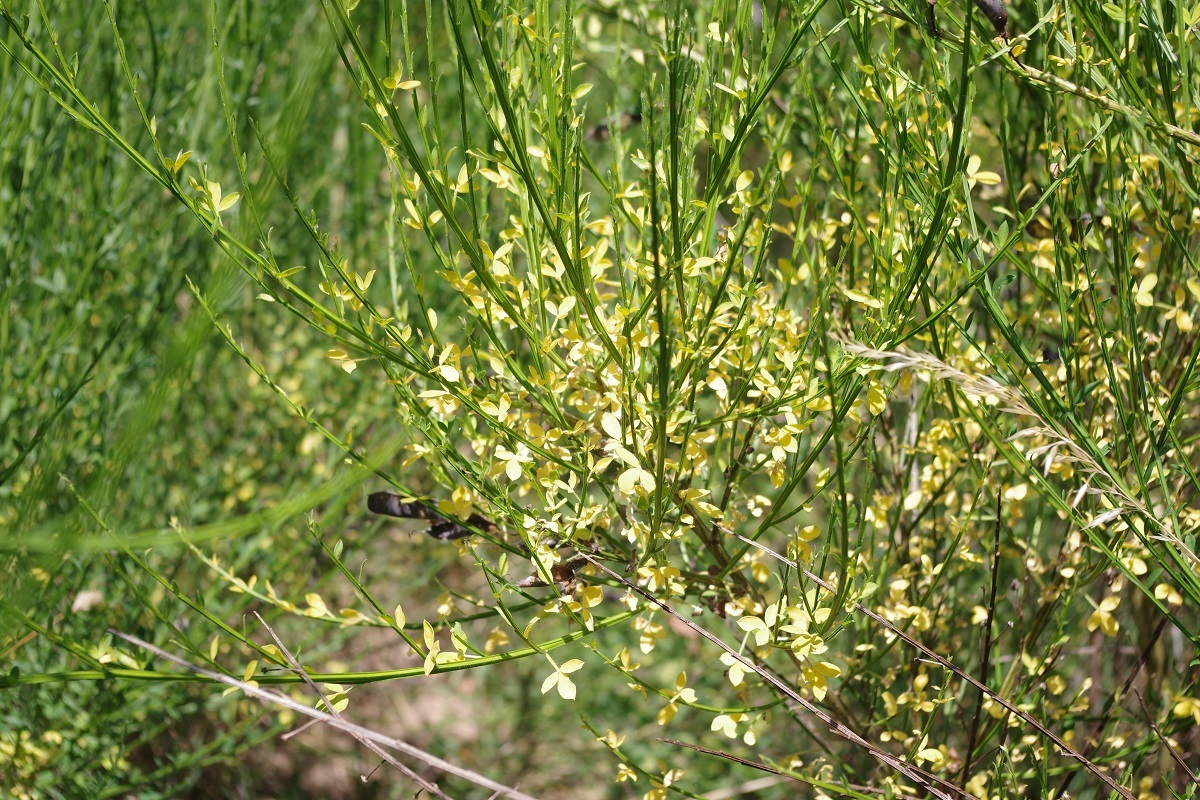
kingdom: Plantae
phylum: Tracheophyta
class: Magnoliopsida
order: Fabales
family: Fabaceae
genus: Cytisus
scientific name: Cytisus scoparius
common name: Scotch broom
